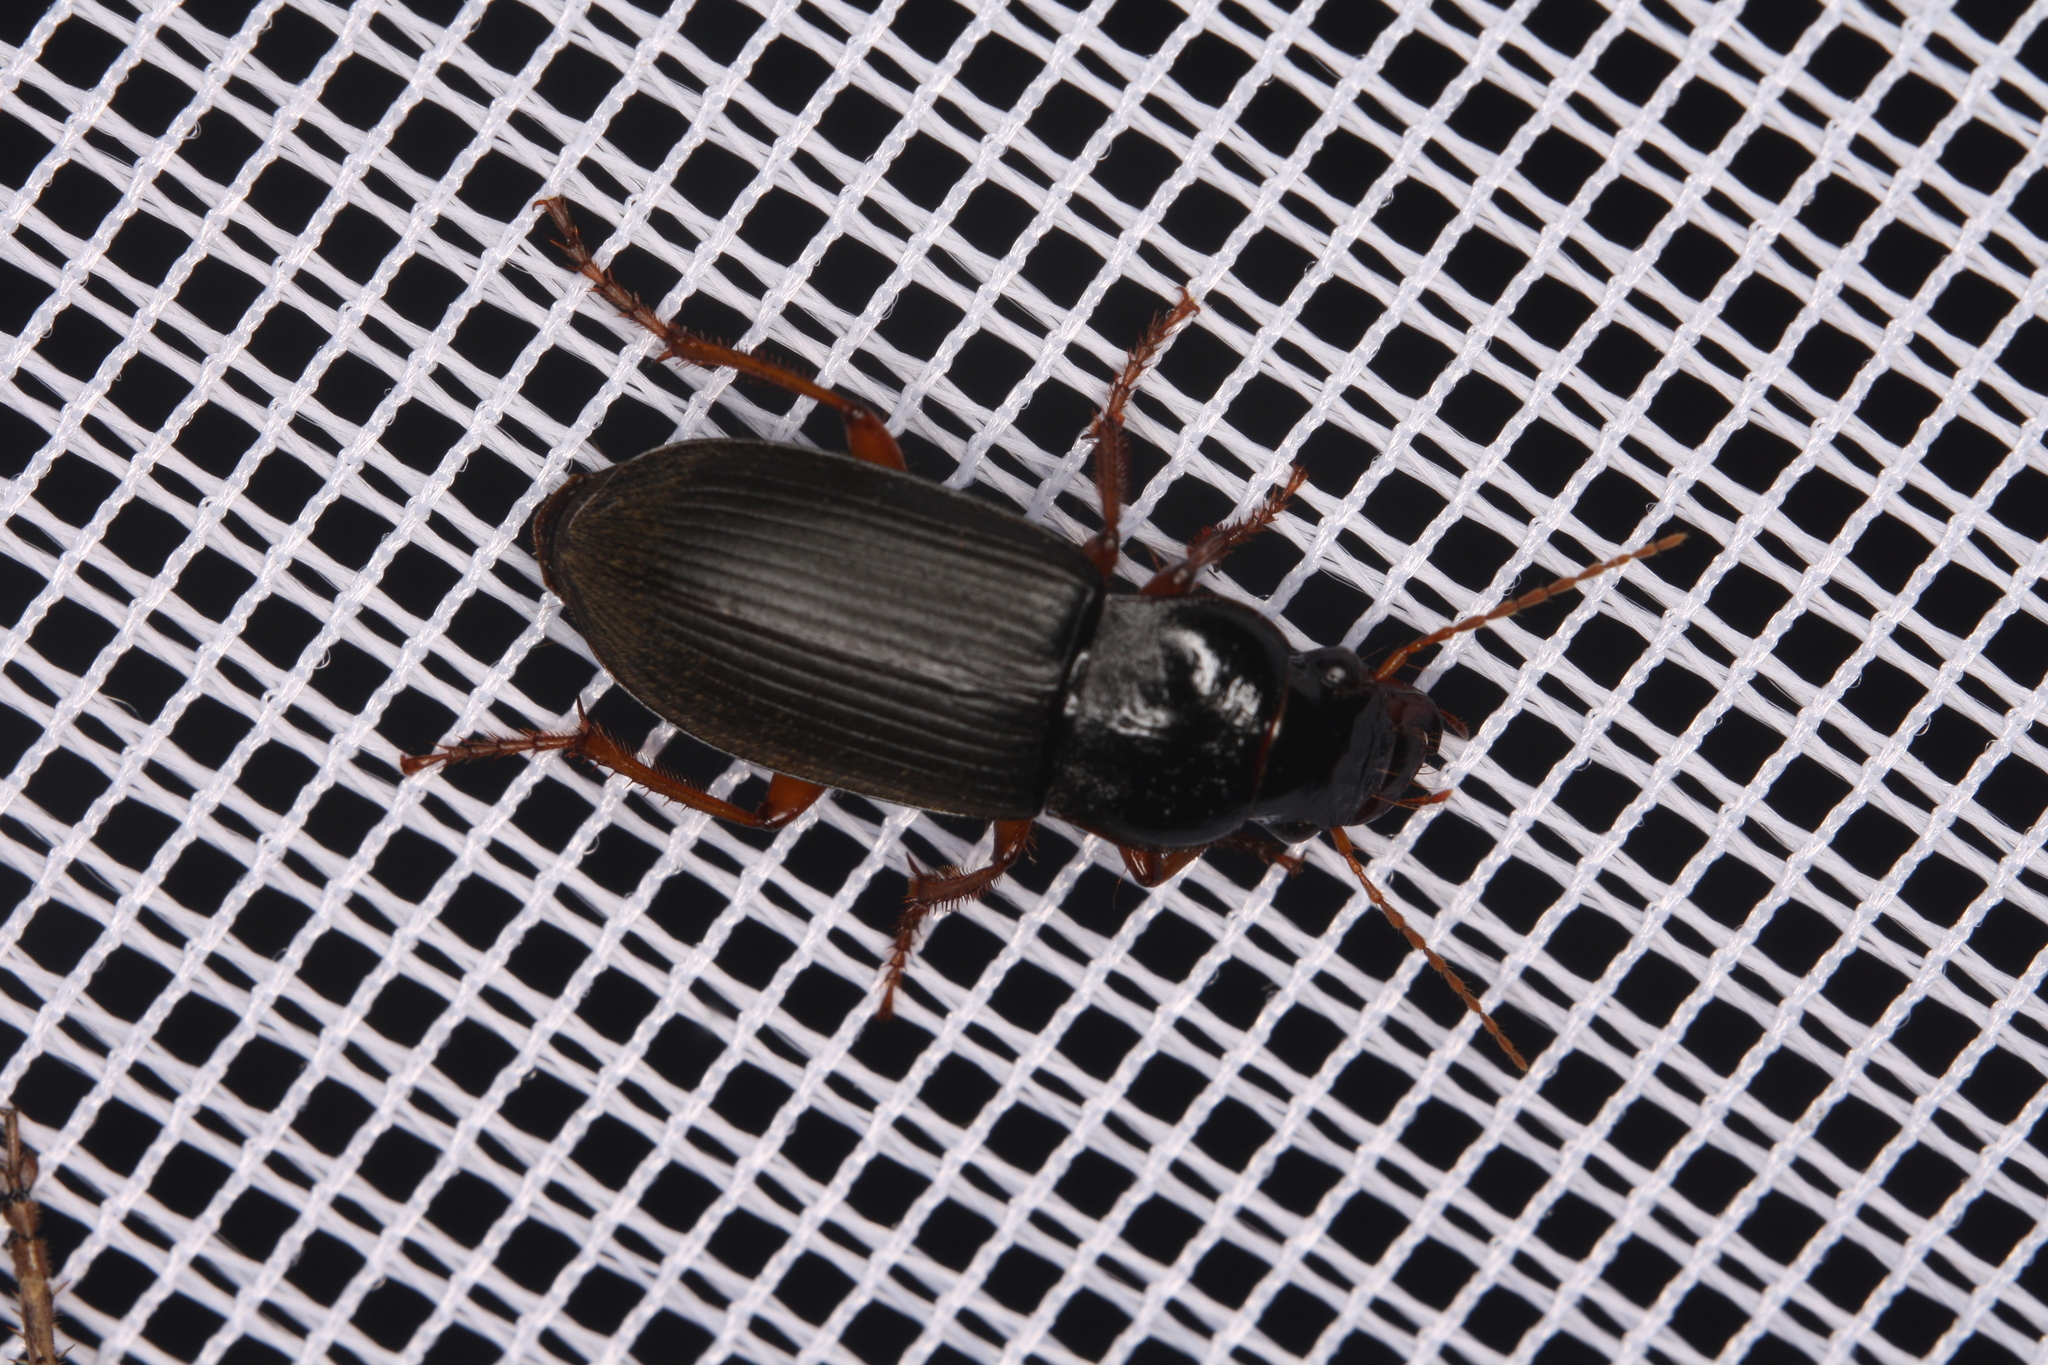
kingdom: Animalia
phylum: Arthropoda
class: Insecta
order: Coleoptera
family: Carabidae
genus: Harpalus
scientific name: Harpalus rufipes
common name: Strawberry harp ground beetle
